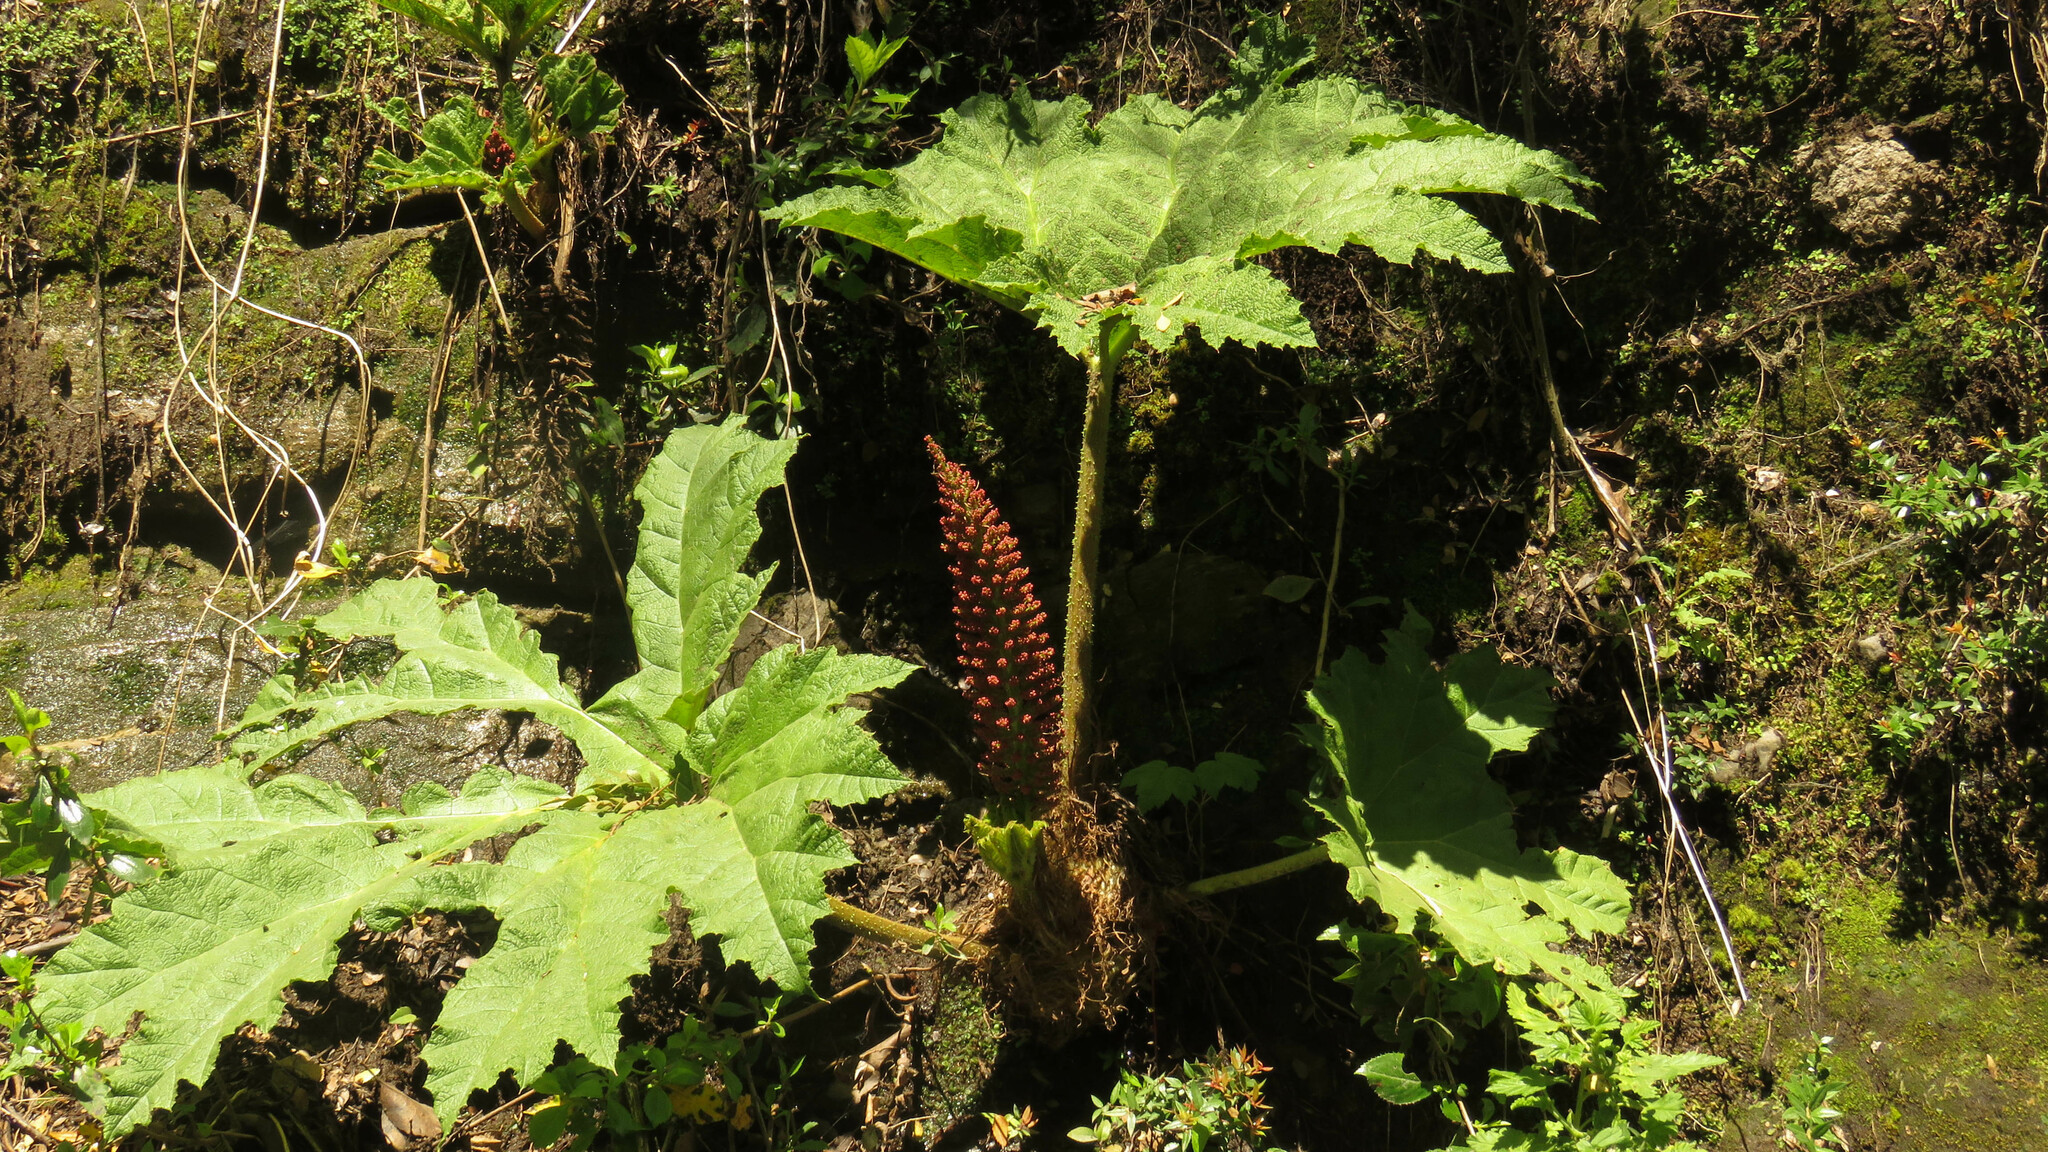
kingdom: Plantae
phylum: Tracheophyta
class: Magnoliopsida
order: Gunnerales
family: Gunneraceae
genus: Gunnera
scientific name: Gunnera tinctoria
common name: Giant-rhubarb
